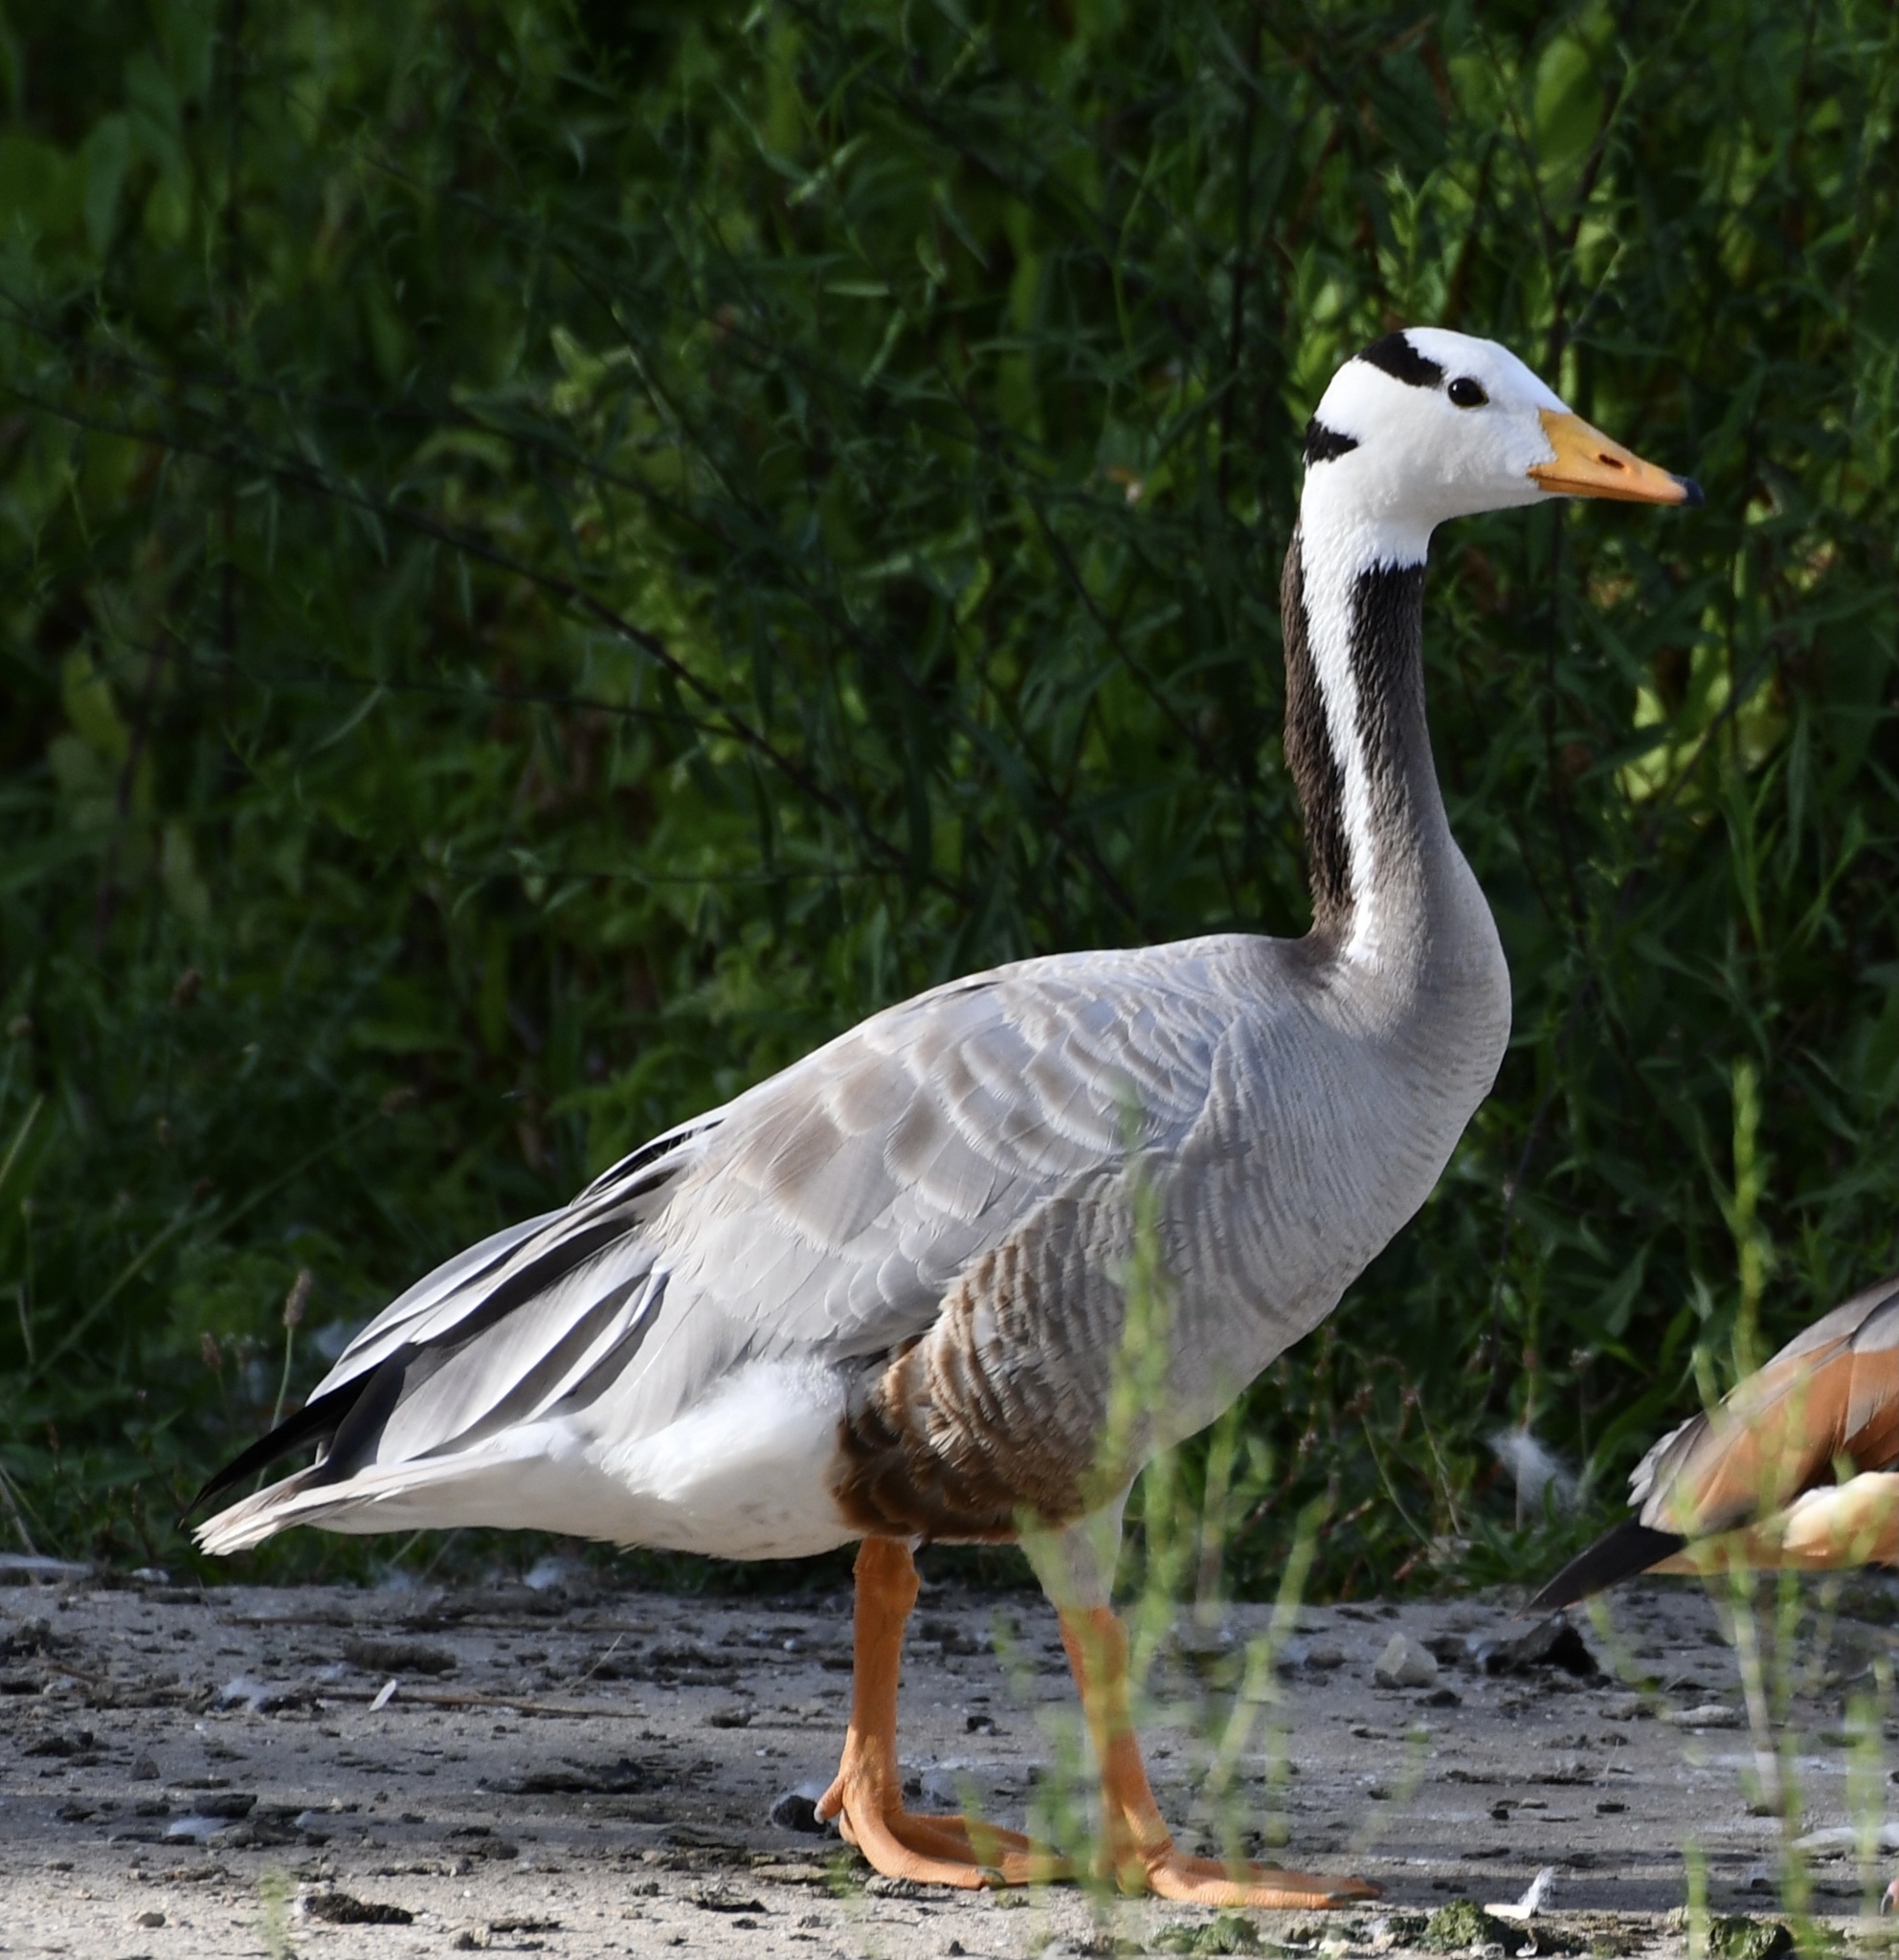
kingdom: Animalia
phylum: Chordata
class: Aves
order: Anseriformes
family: Anatidae
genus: Anser
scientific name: Anser indicus
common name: Bar-headed goose
